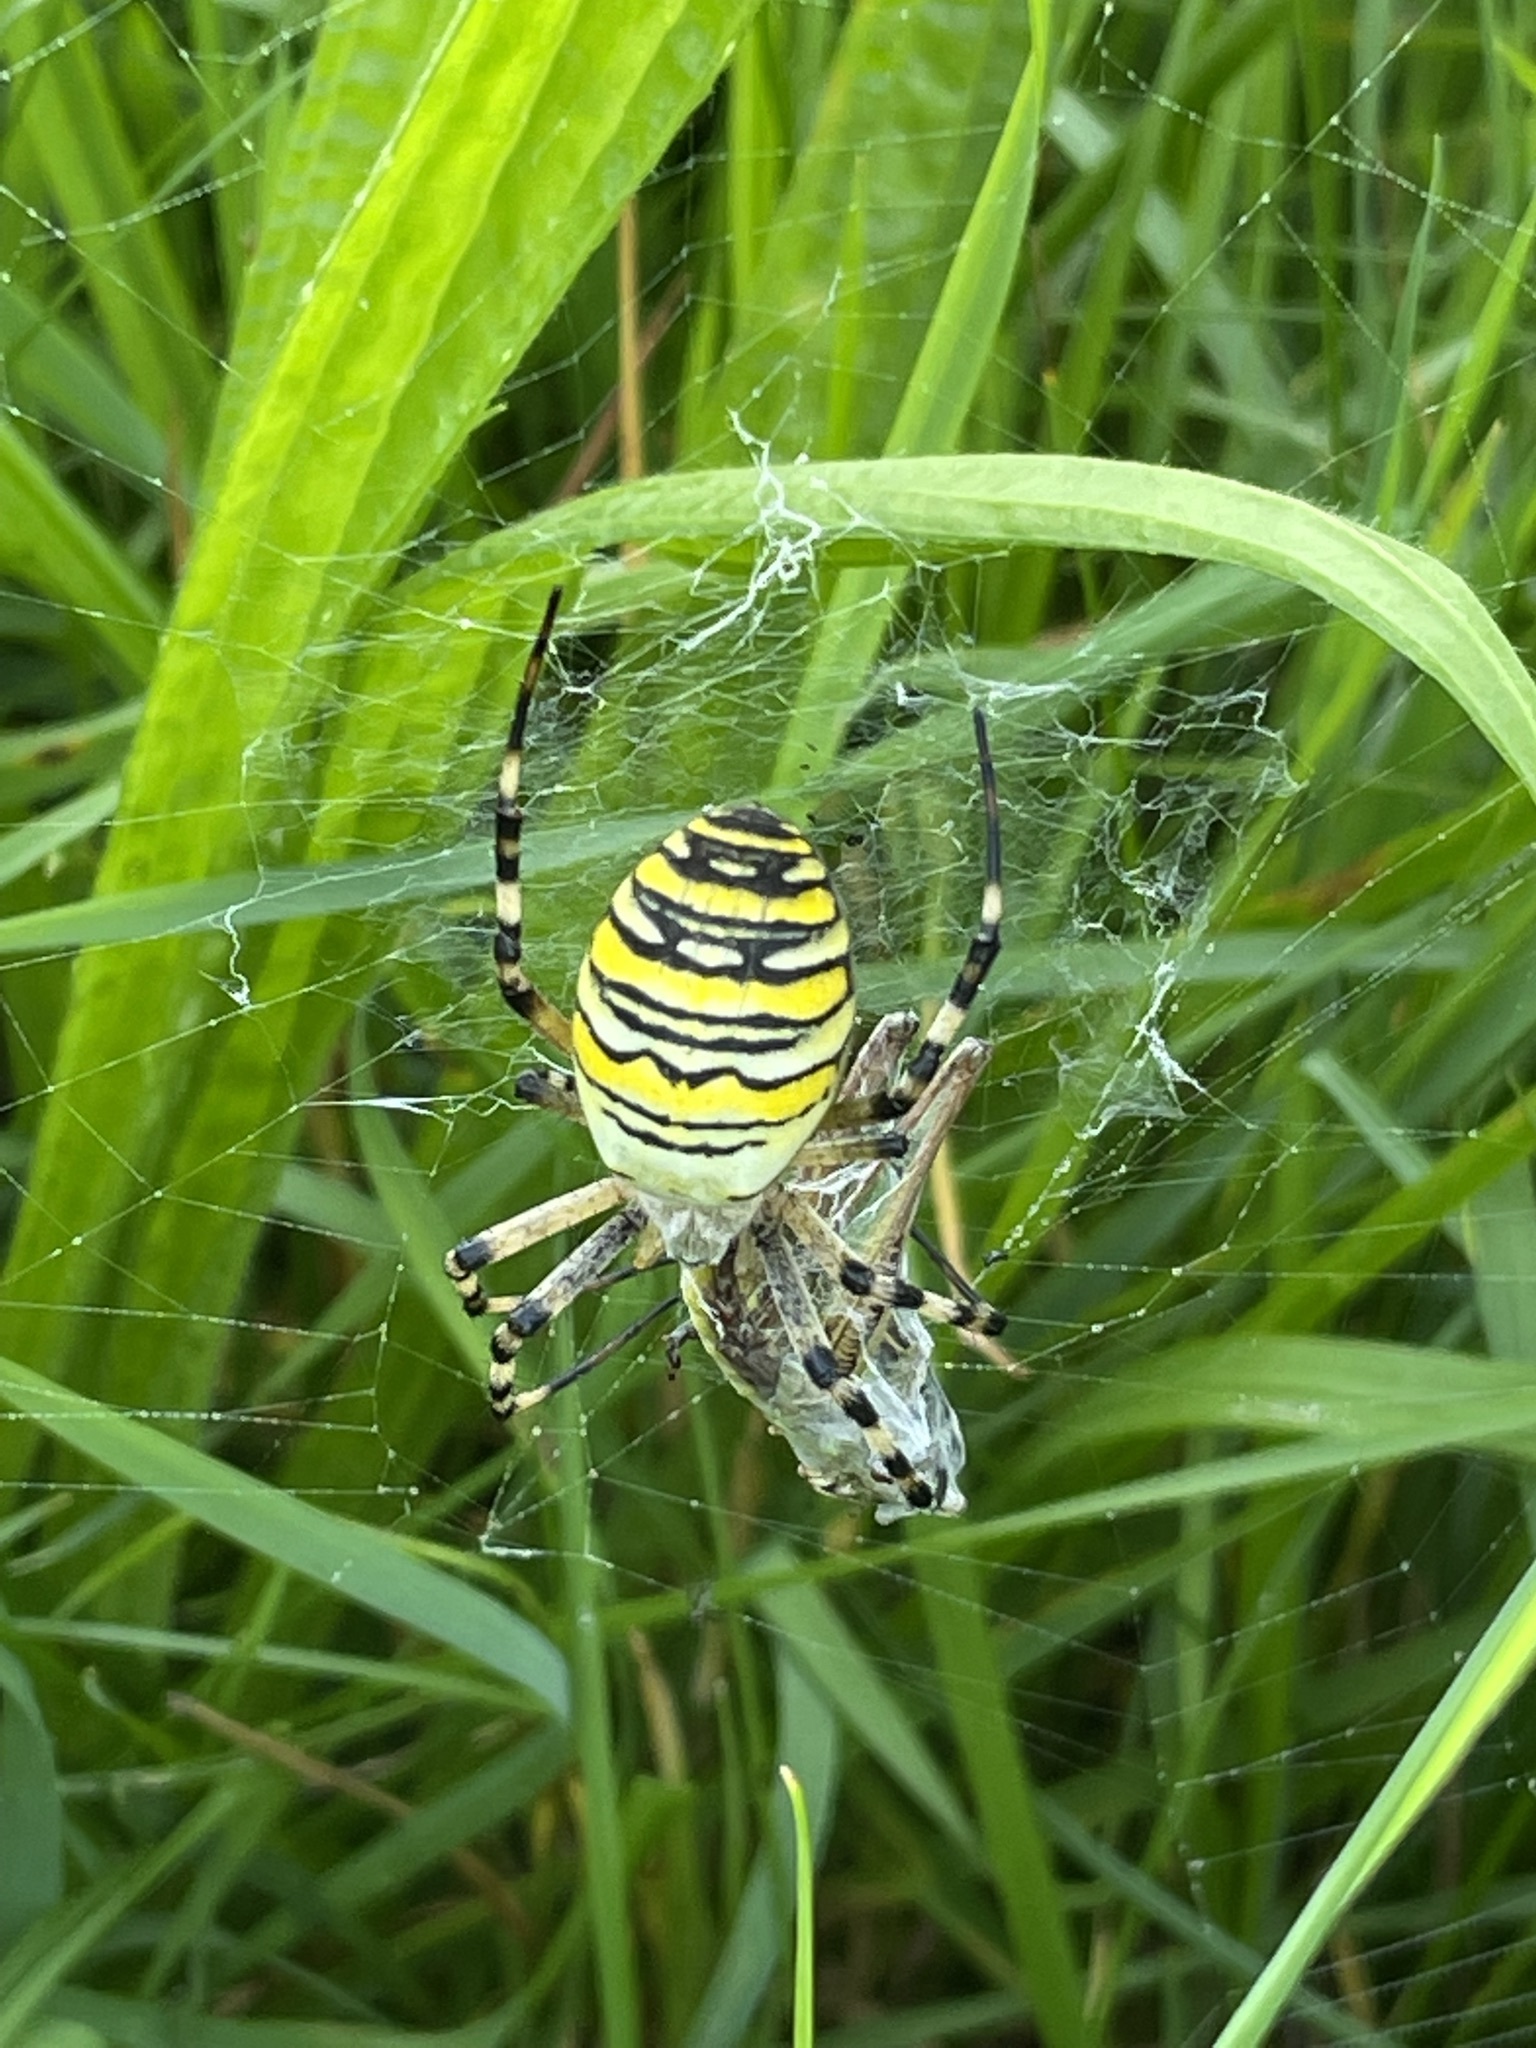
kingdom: Animalia
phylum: Arthropoda
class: Arachnida
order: Araneae
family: Araneidae
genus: Argiope
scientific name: Argiope bruennichi
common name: Wasp spider
